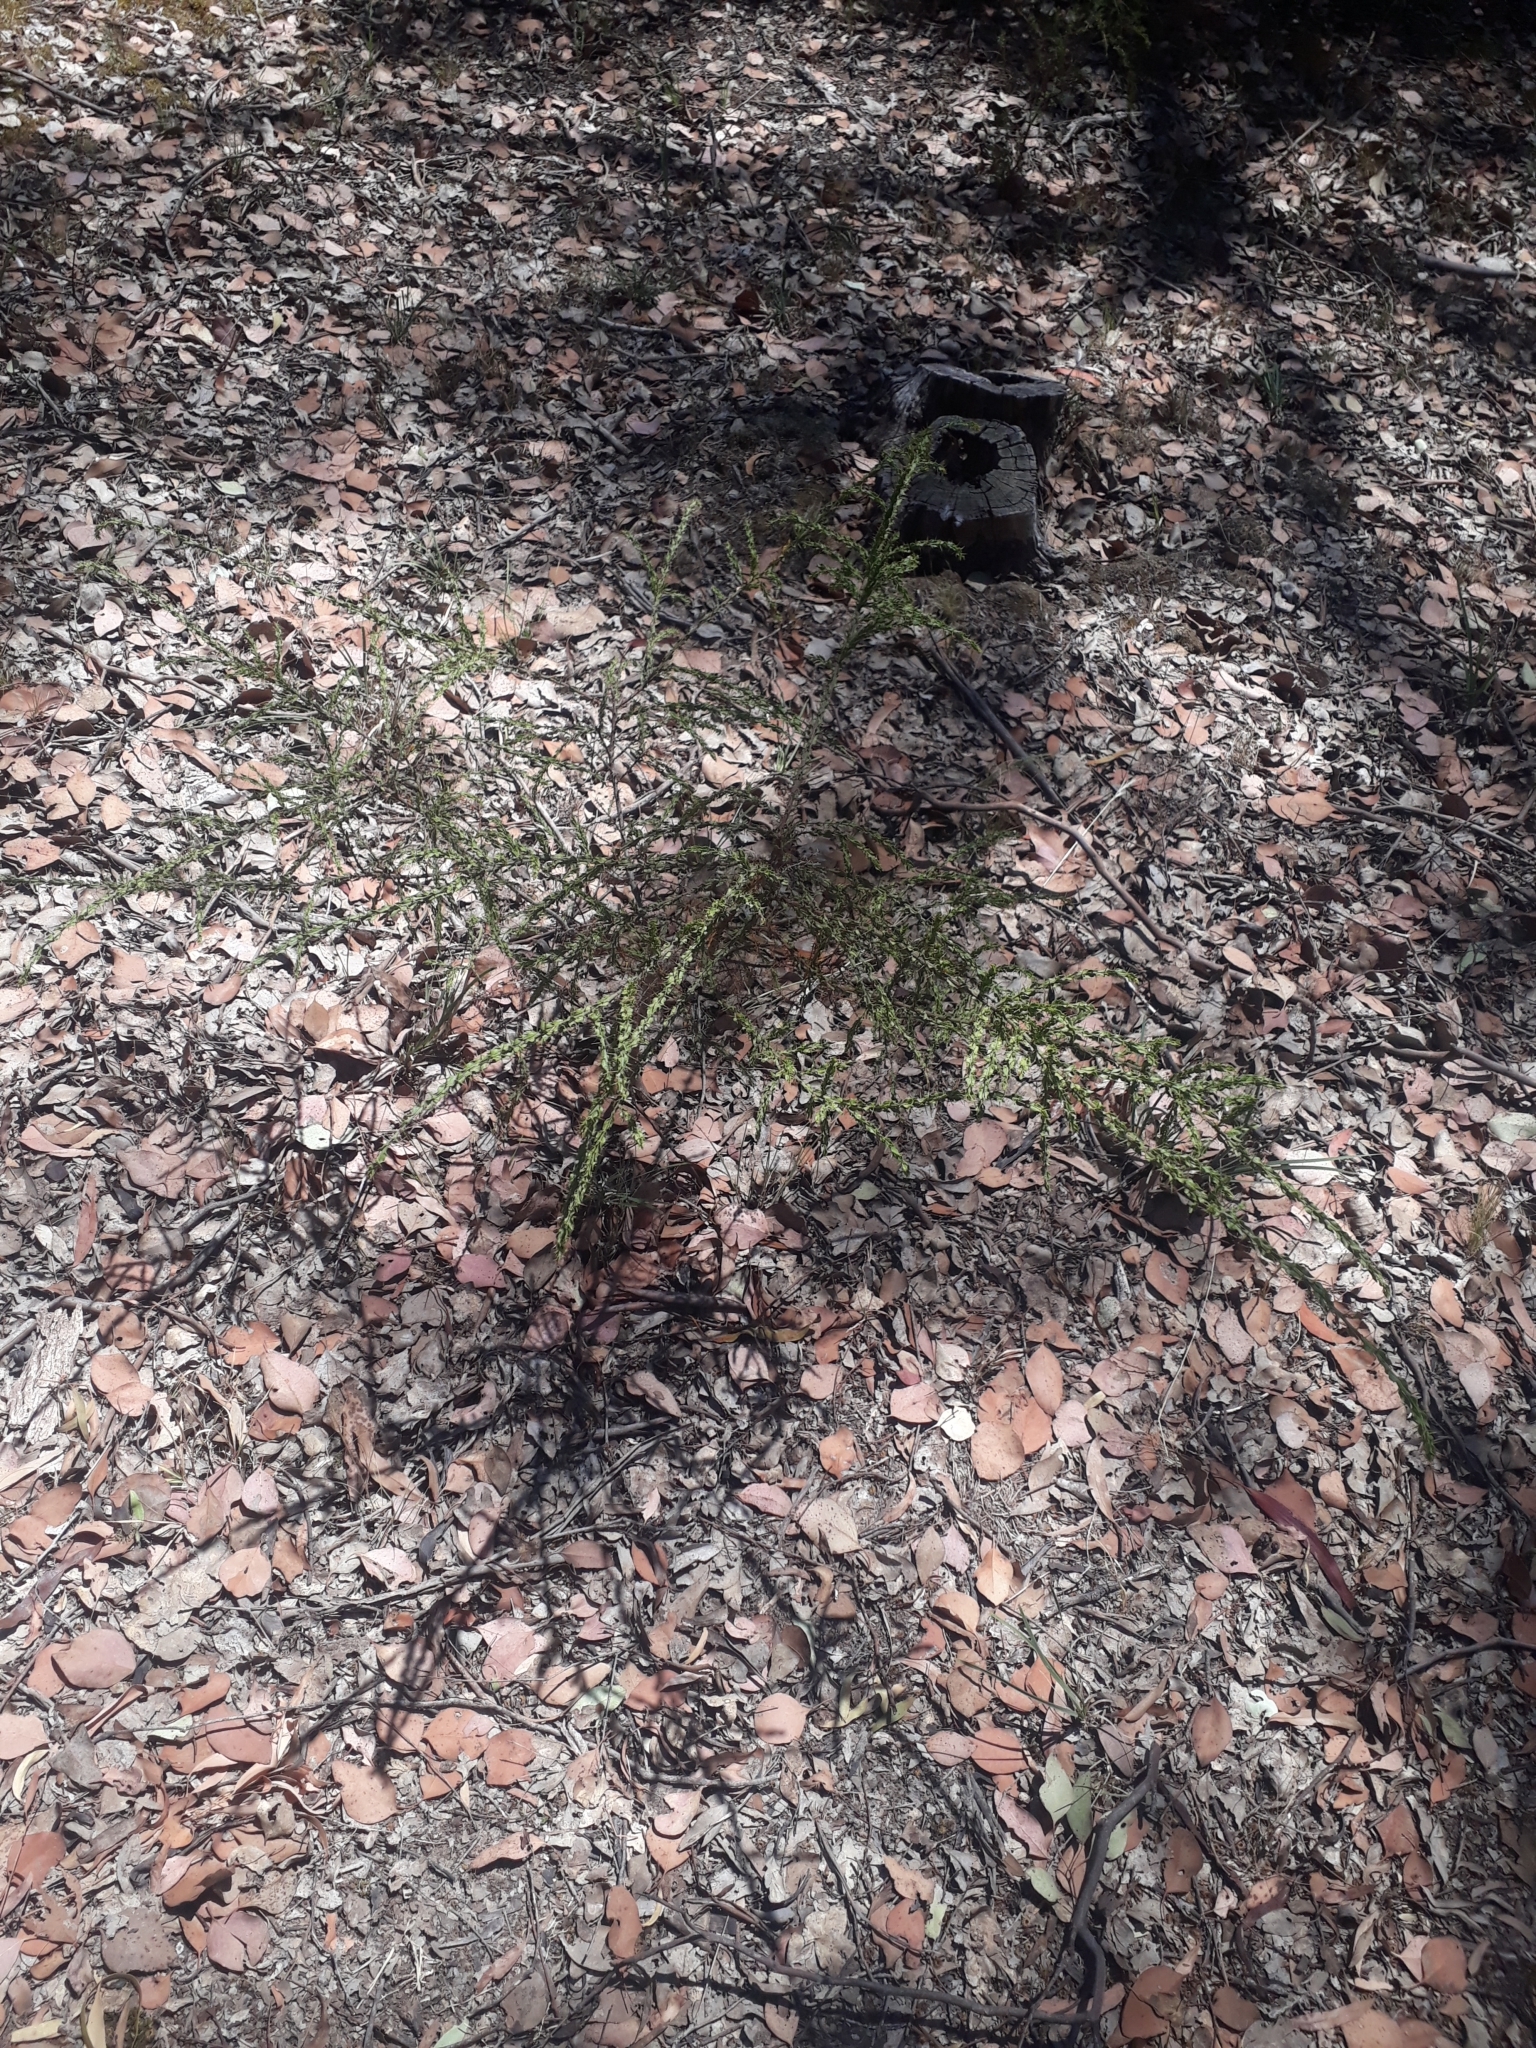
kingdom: Plantae
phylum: Tracheophyta
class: Magnoliopsida
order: Fabales
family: Fabaceae
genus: Acacia
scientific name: Acacia paradoxa
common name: Paradox acacia
